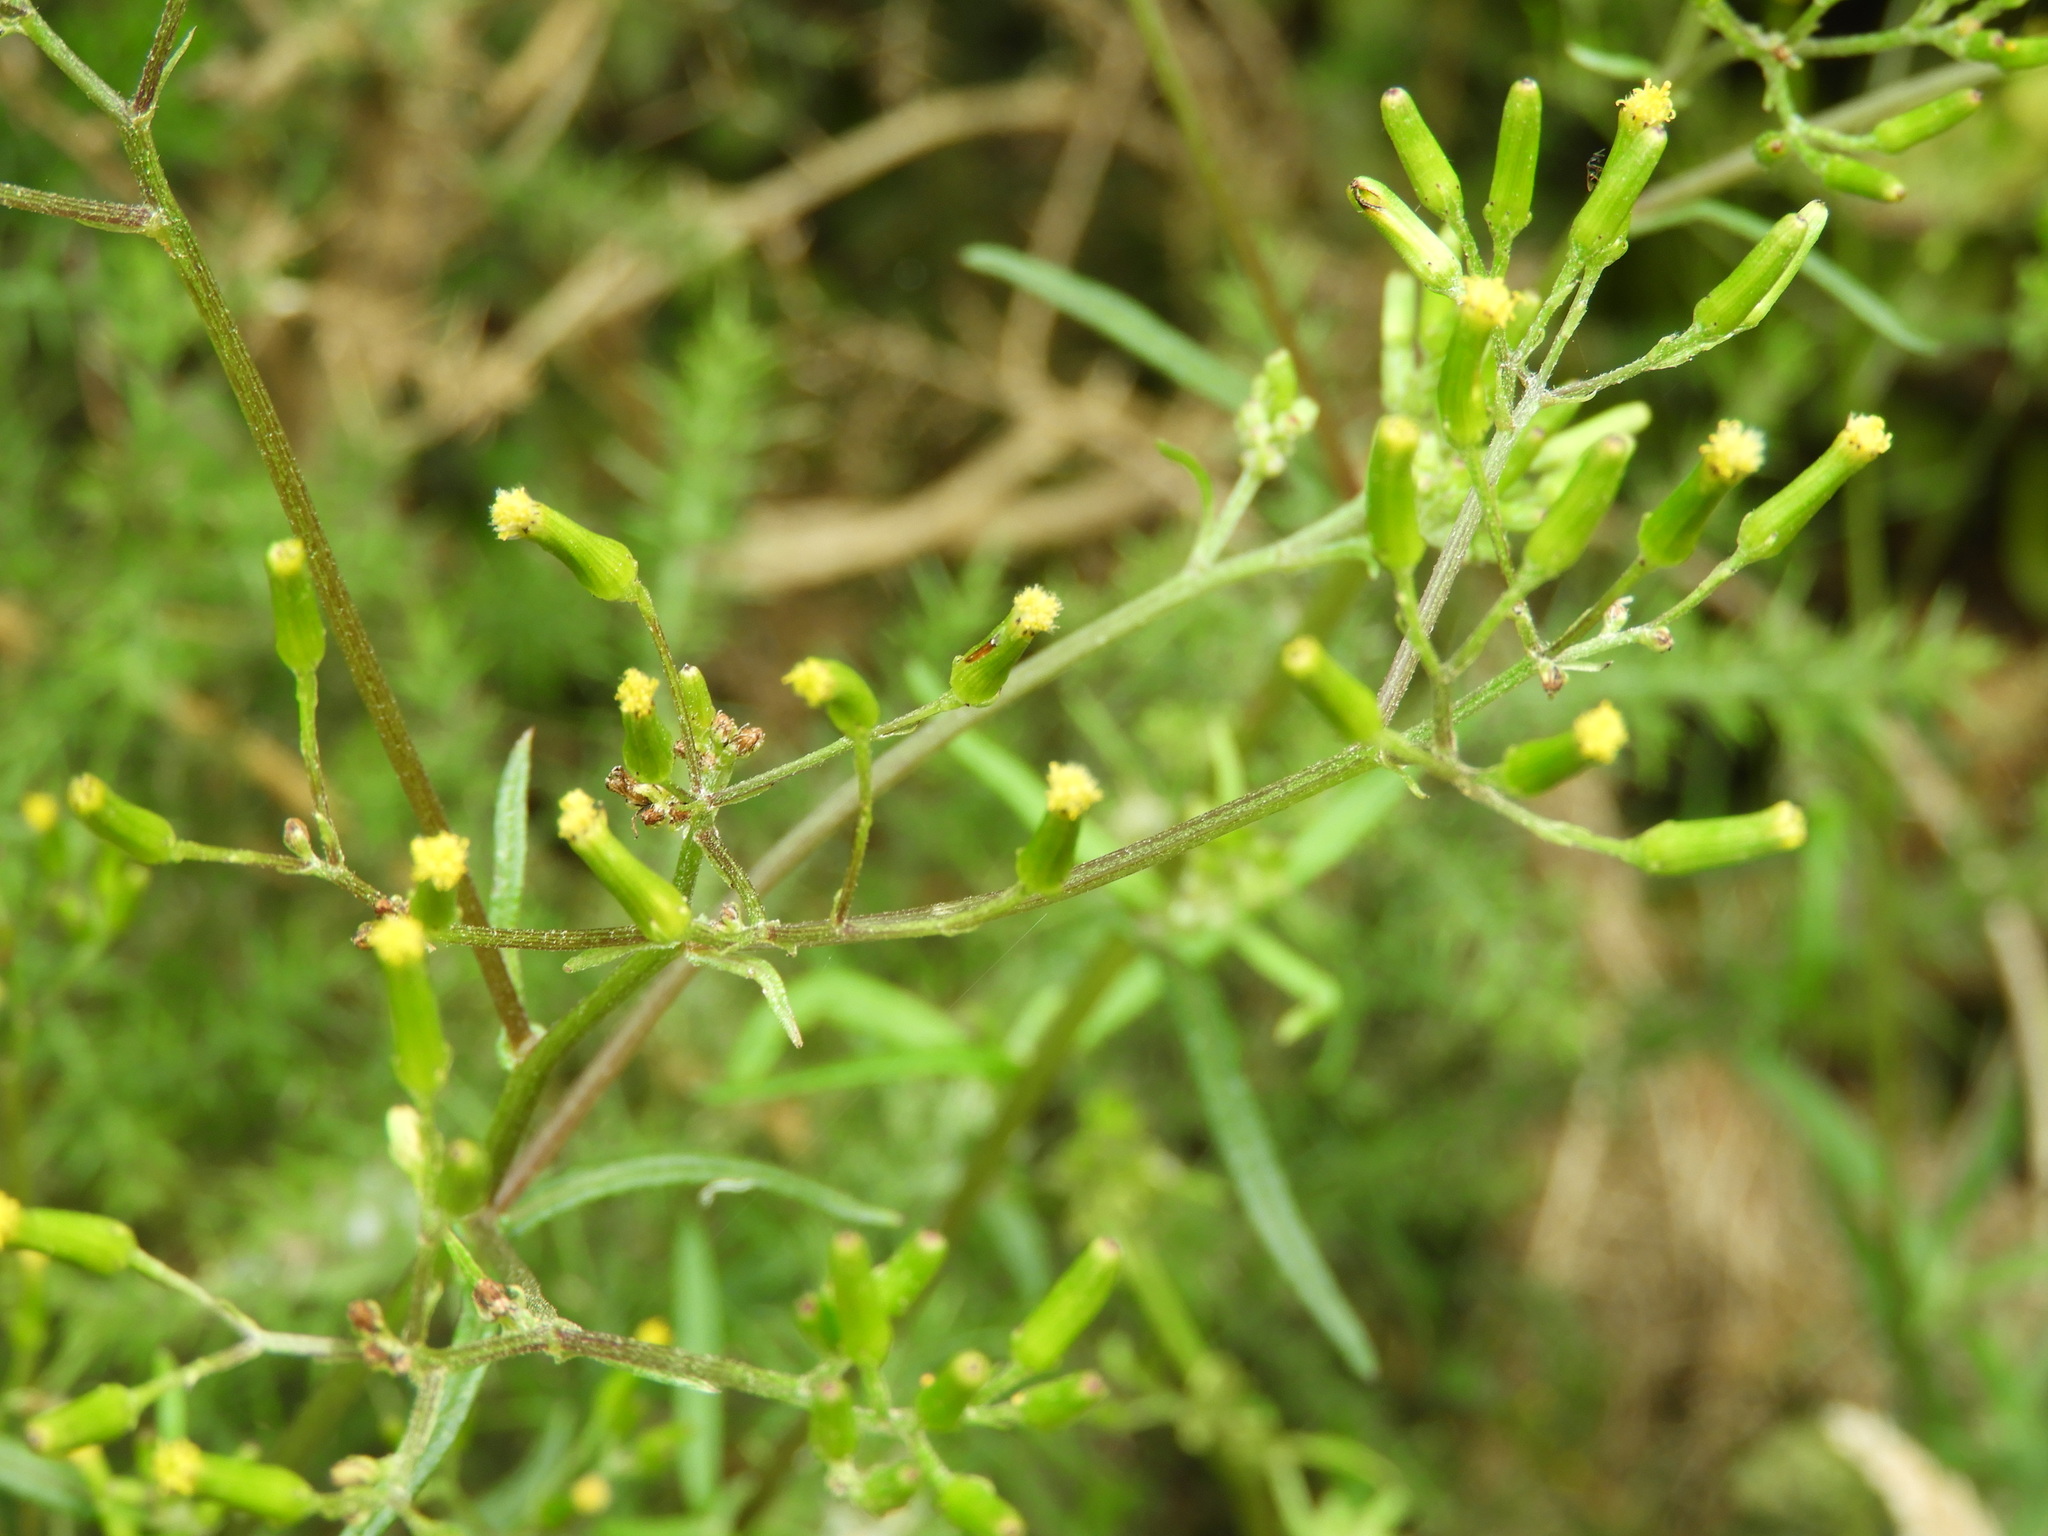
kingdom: Plantae
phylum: Tracheophyta
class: Magnoliopsida
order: Asterales
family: Asteraceae
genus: Senecio
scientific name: Senecio minimus
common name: Toothed fireweed
